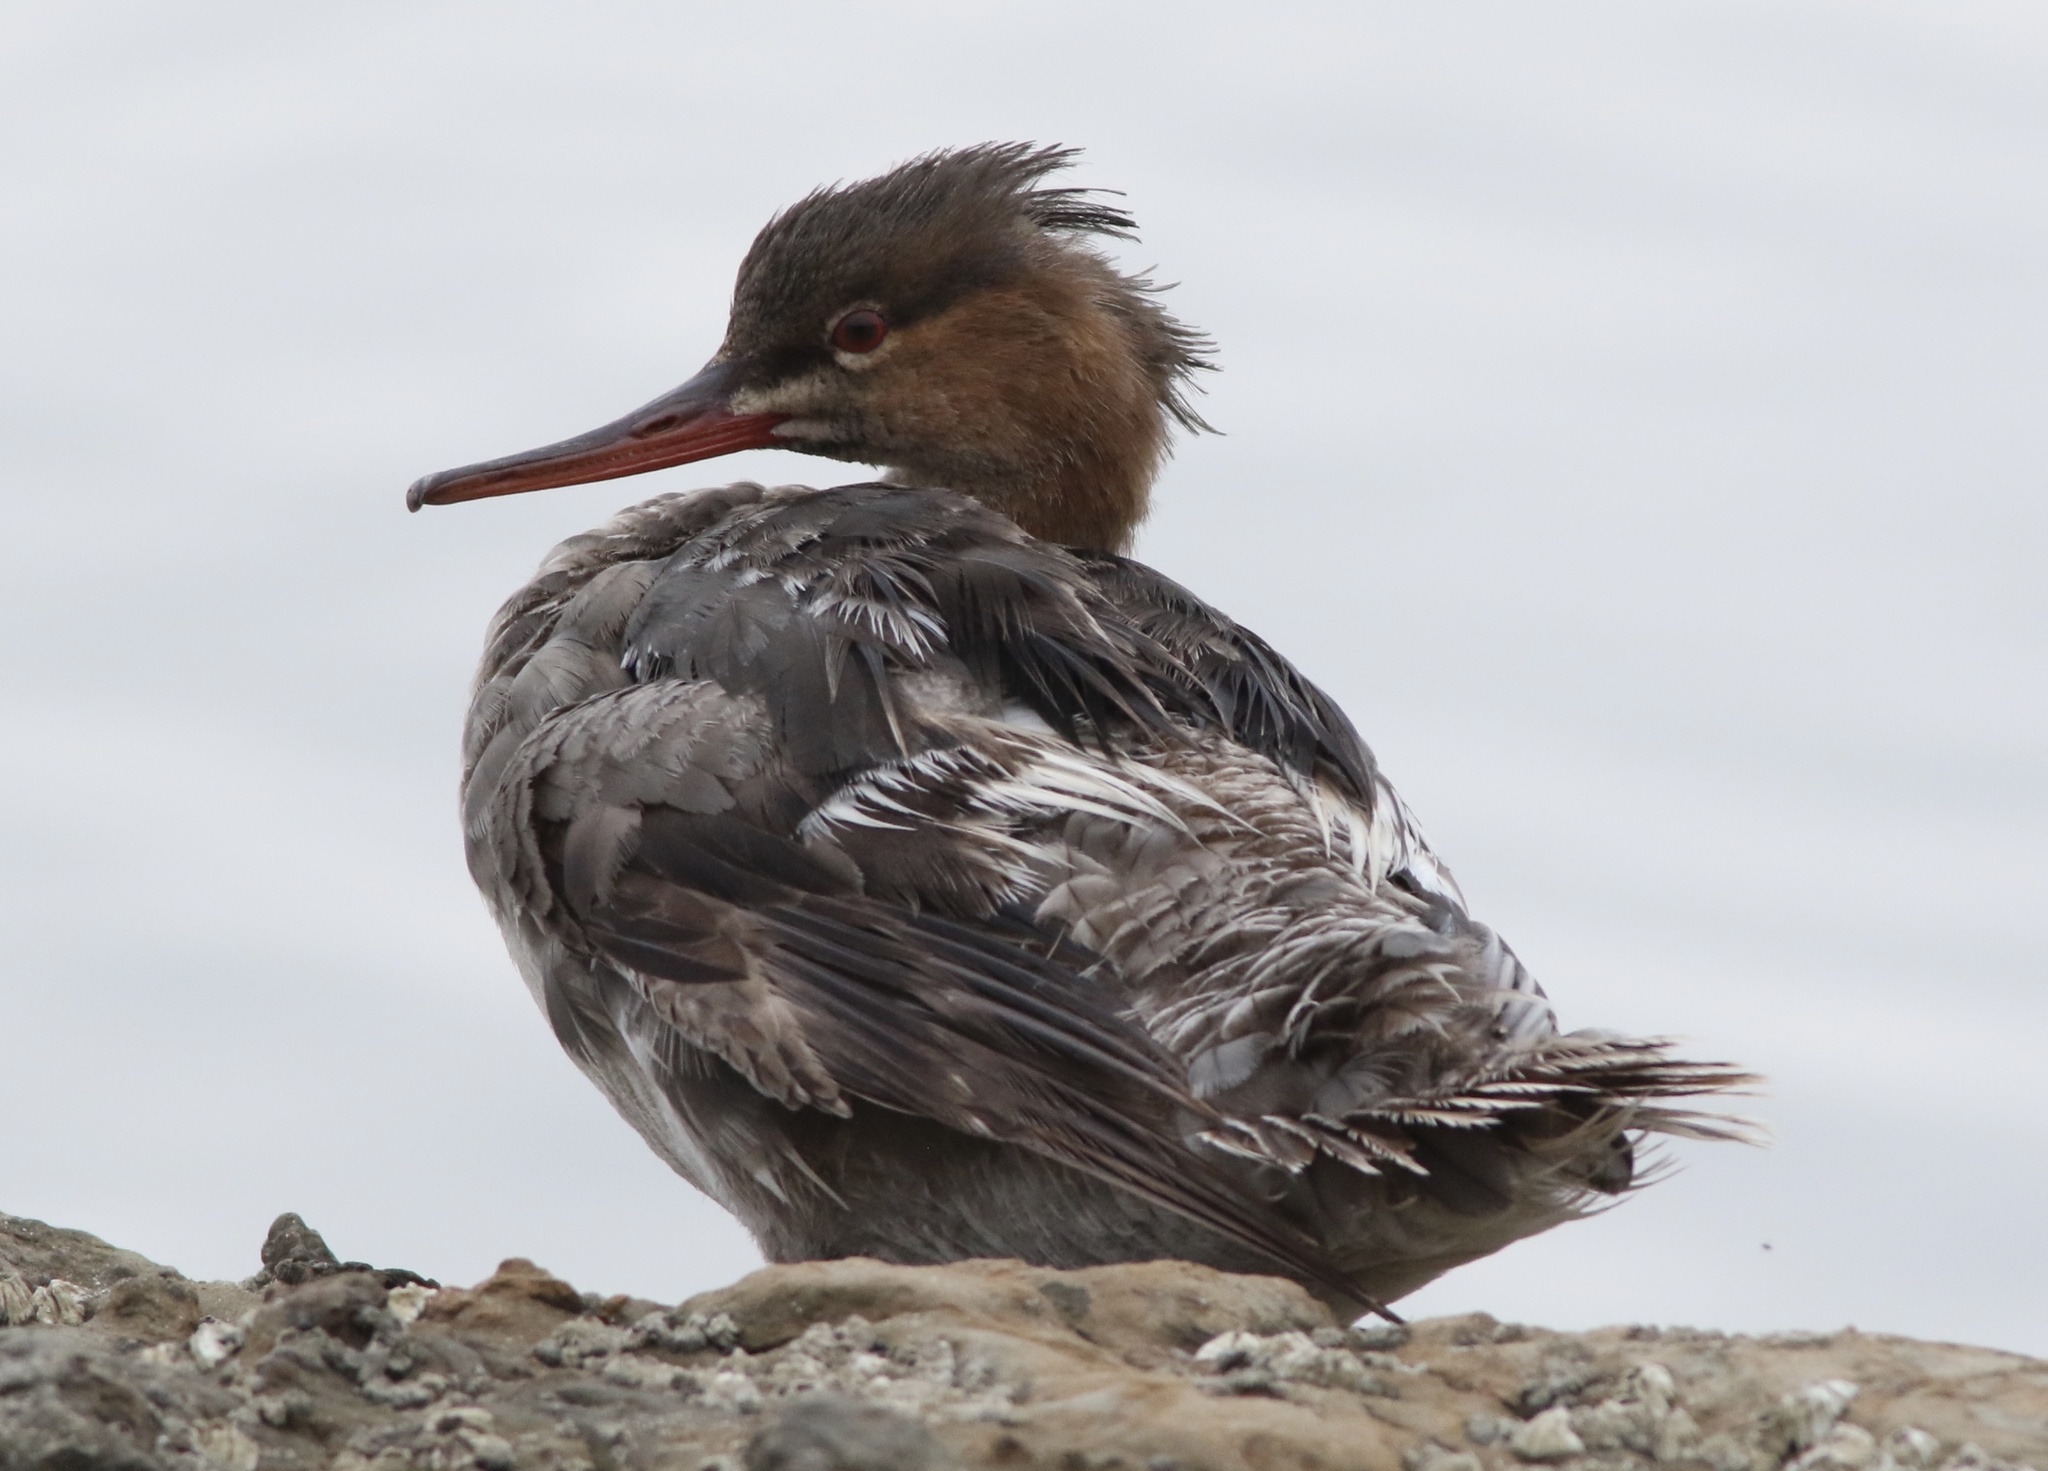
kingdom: Animalia
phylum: Chordata
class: Aves
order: Anseriformes
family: Anatidae
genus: Mergus
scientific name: Mergus serrator
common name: Red-breasted merganser
